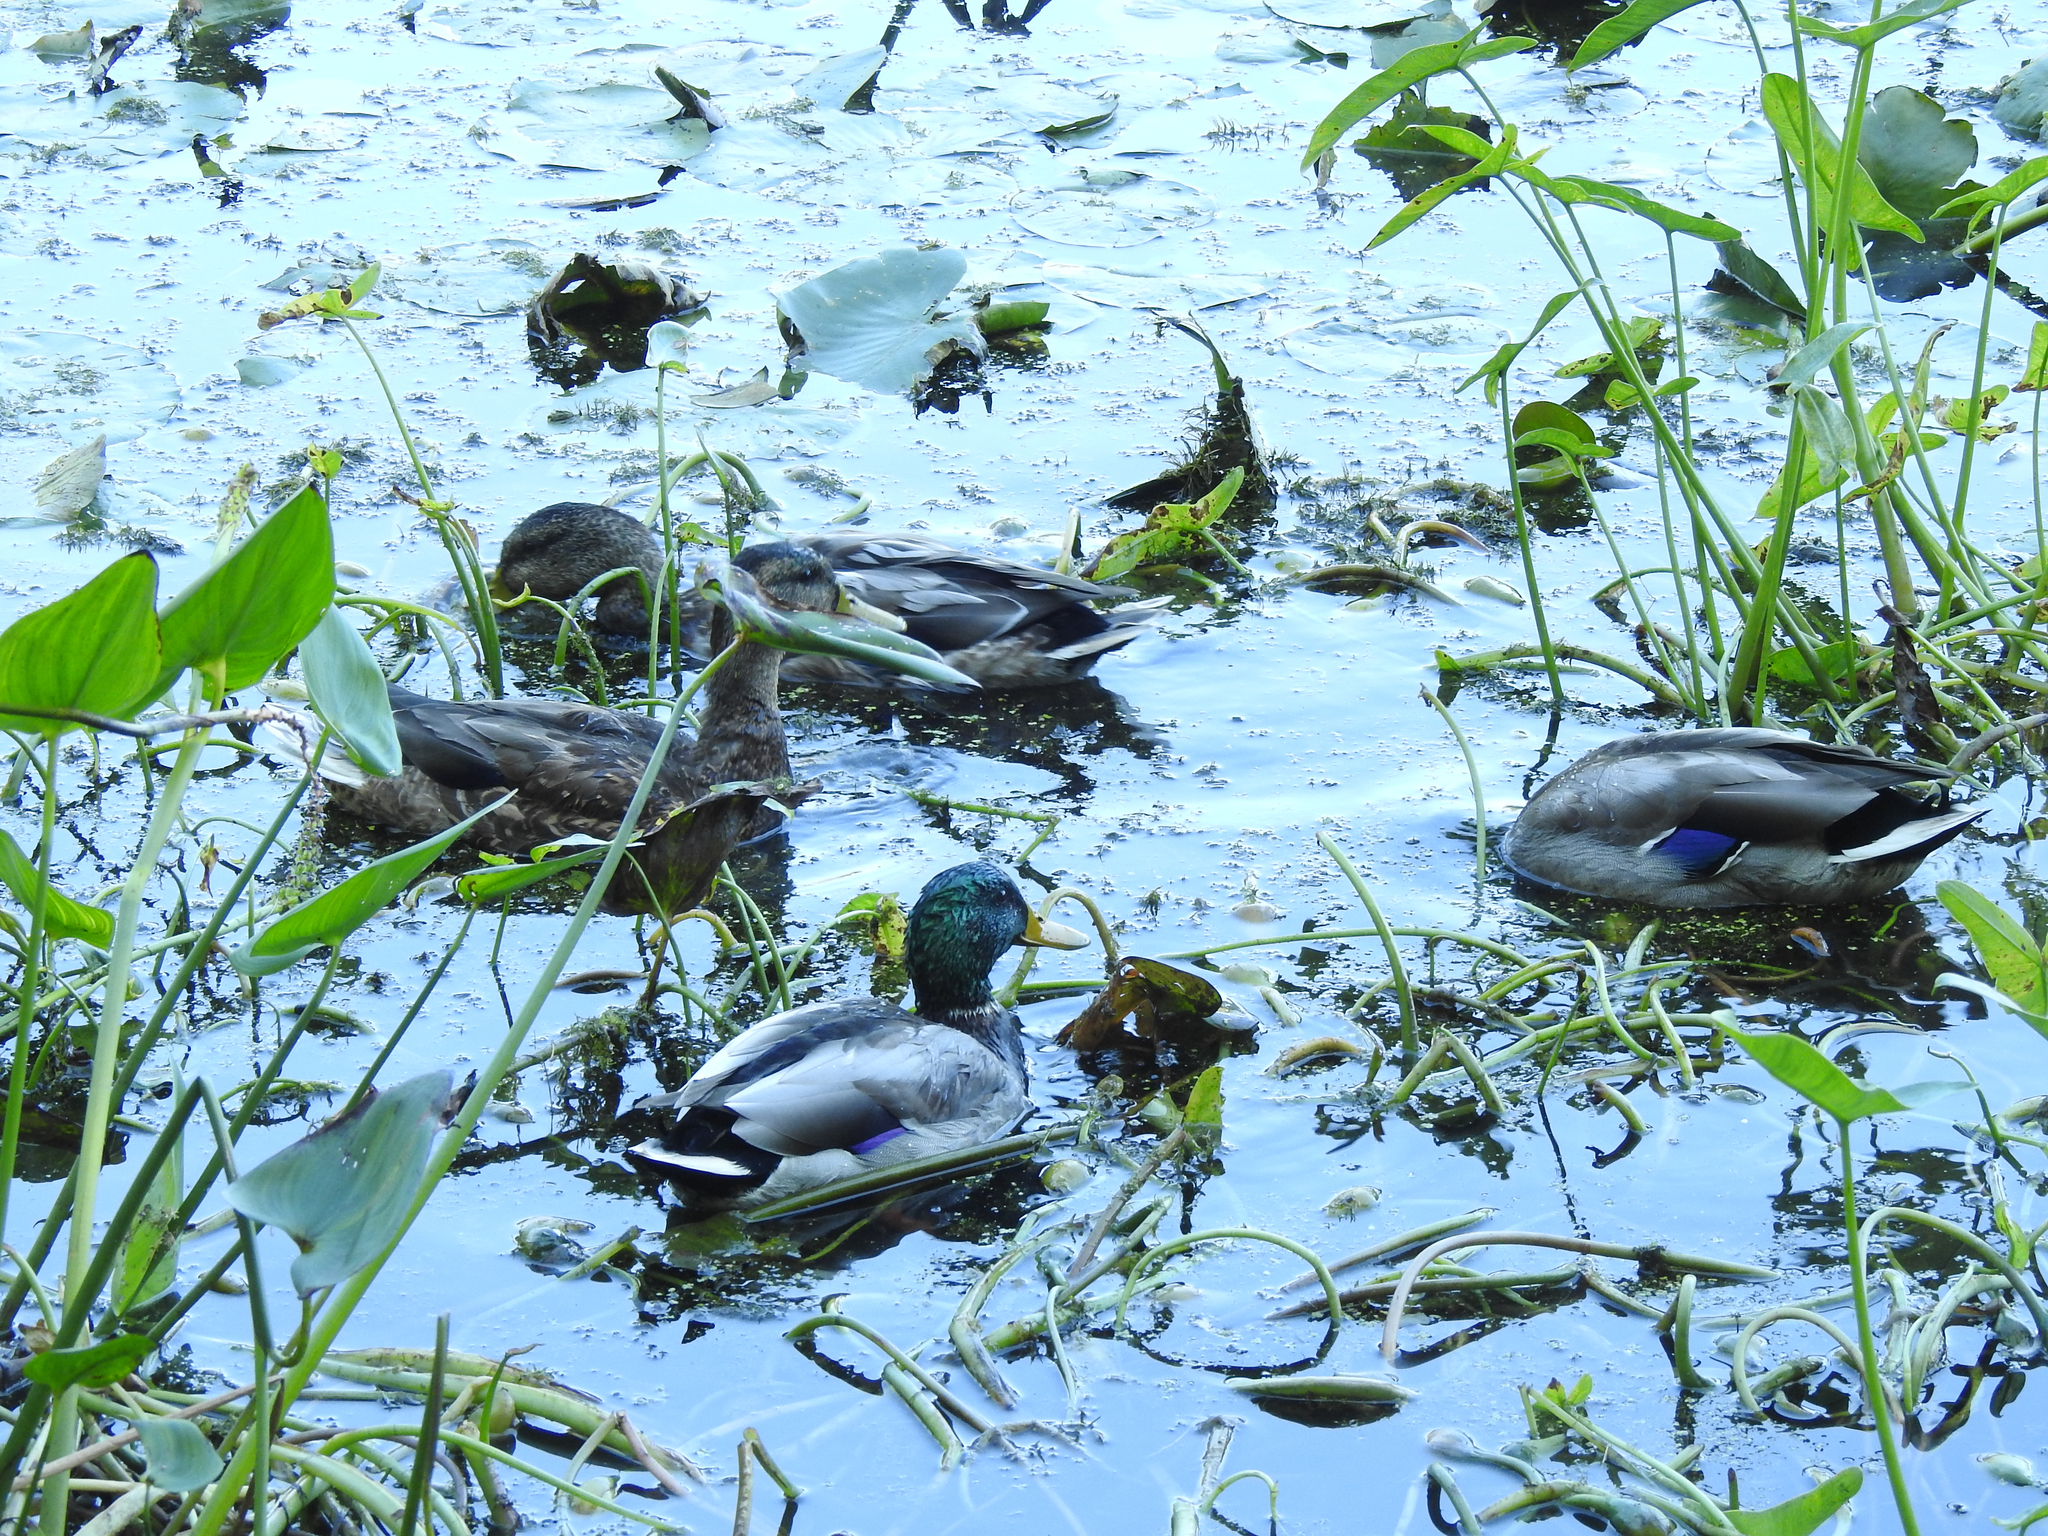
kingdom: Animalia
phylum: Chordata
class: Aves
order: Anseriformes
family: Anatidae
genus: Anas
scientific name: Anas platyrhynchos
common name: Mallard
